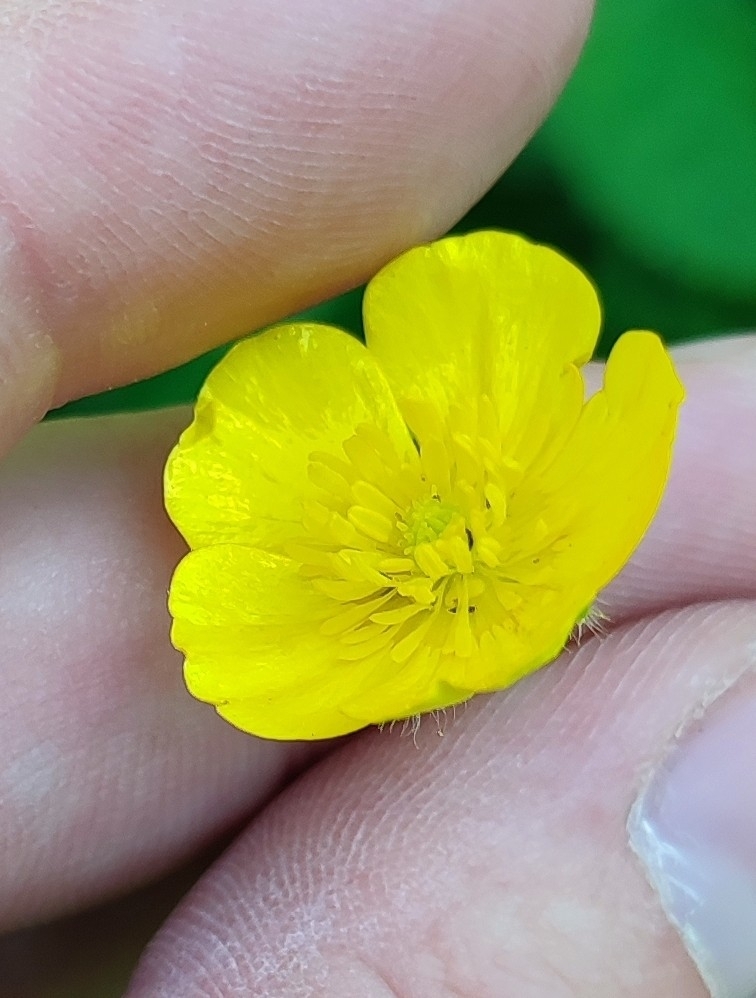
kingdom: Plantae
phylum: Tracheophyta
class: Magnoliopsida
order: Ranunculales
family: Ranunculaceae
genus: Ranunculus
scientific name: Ranunculus polyanthemos
